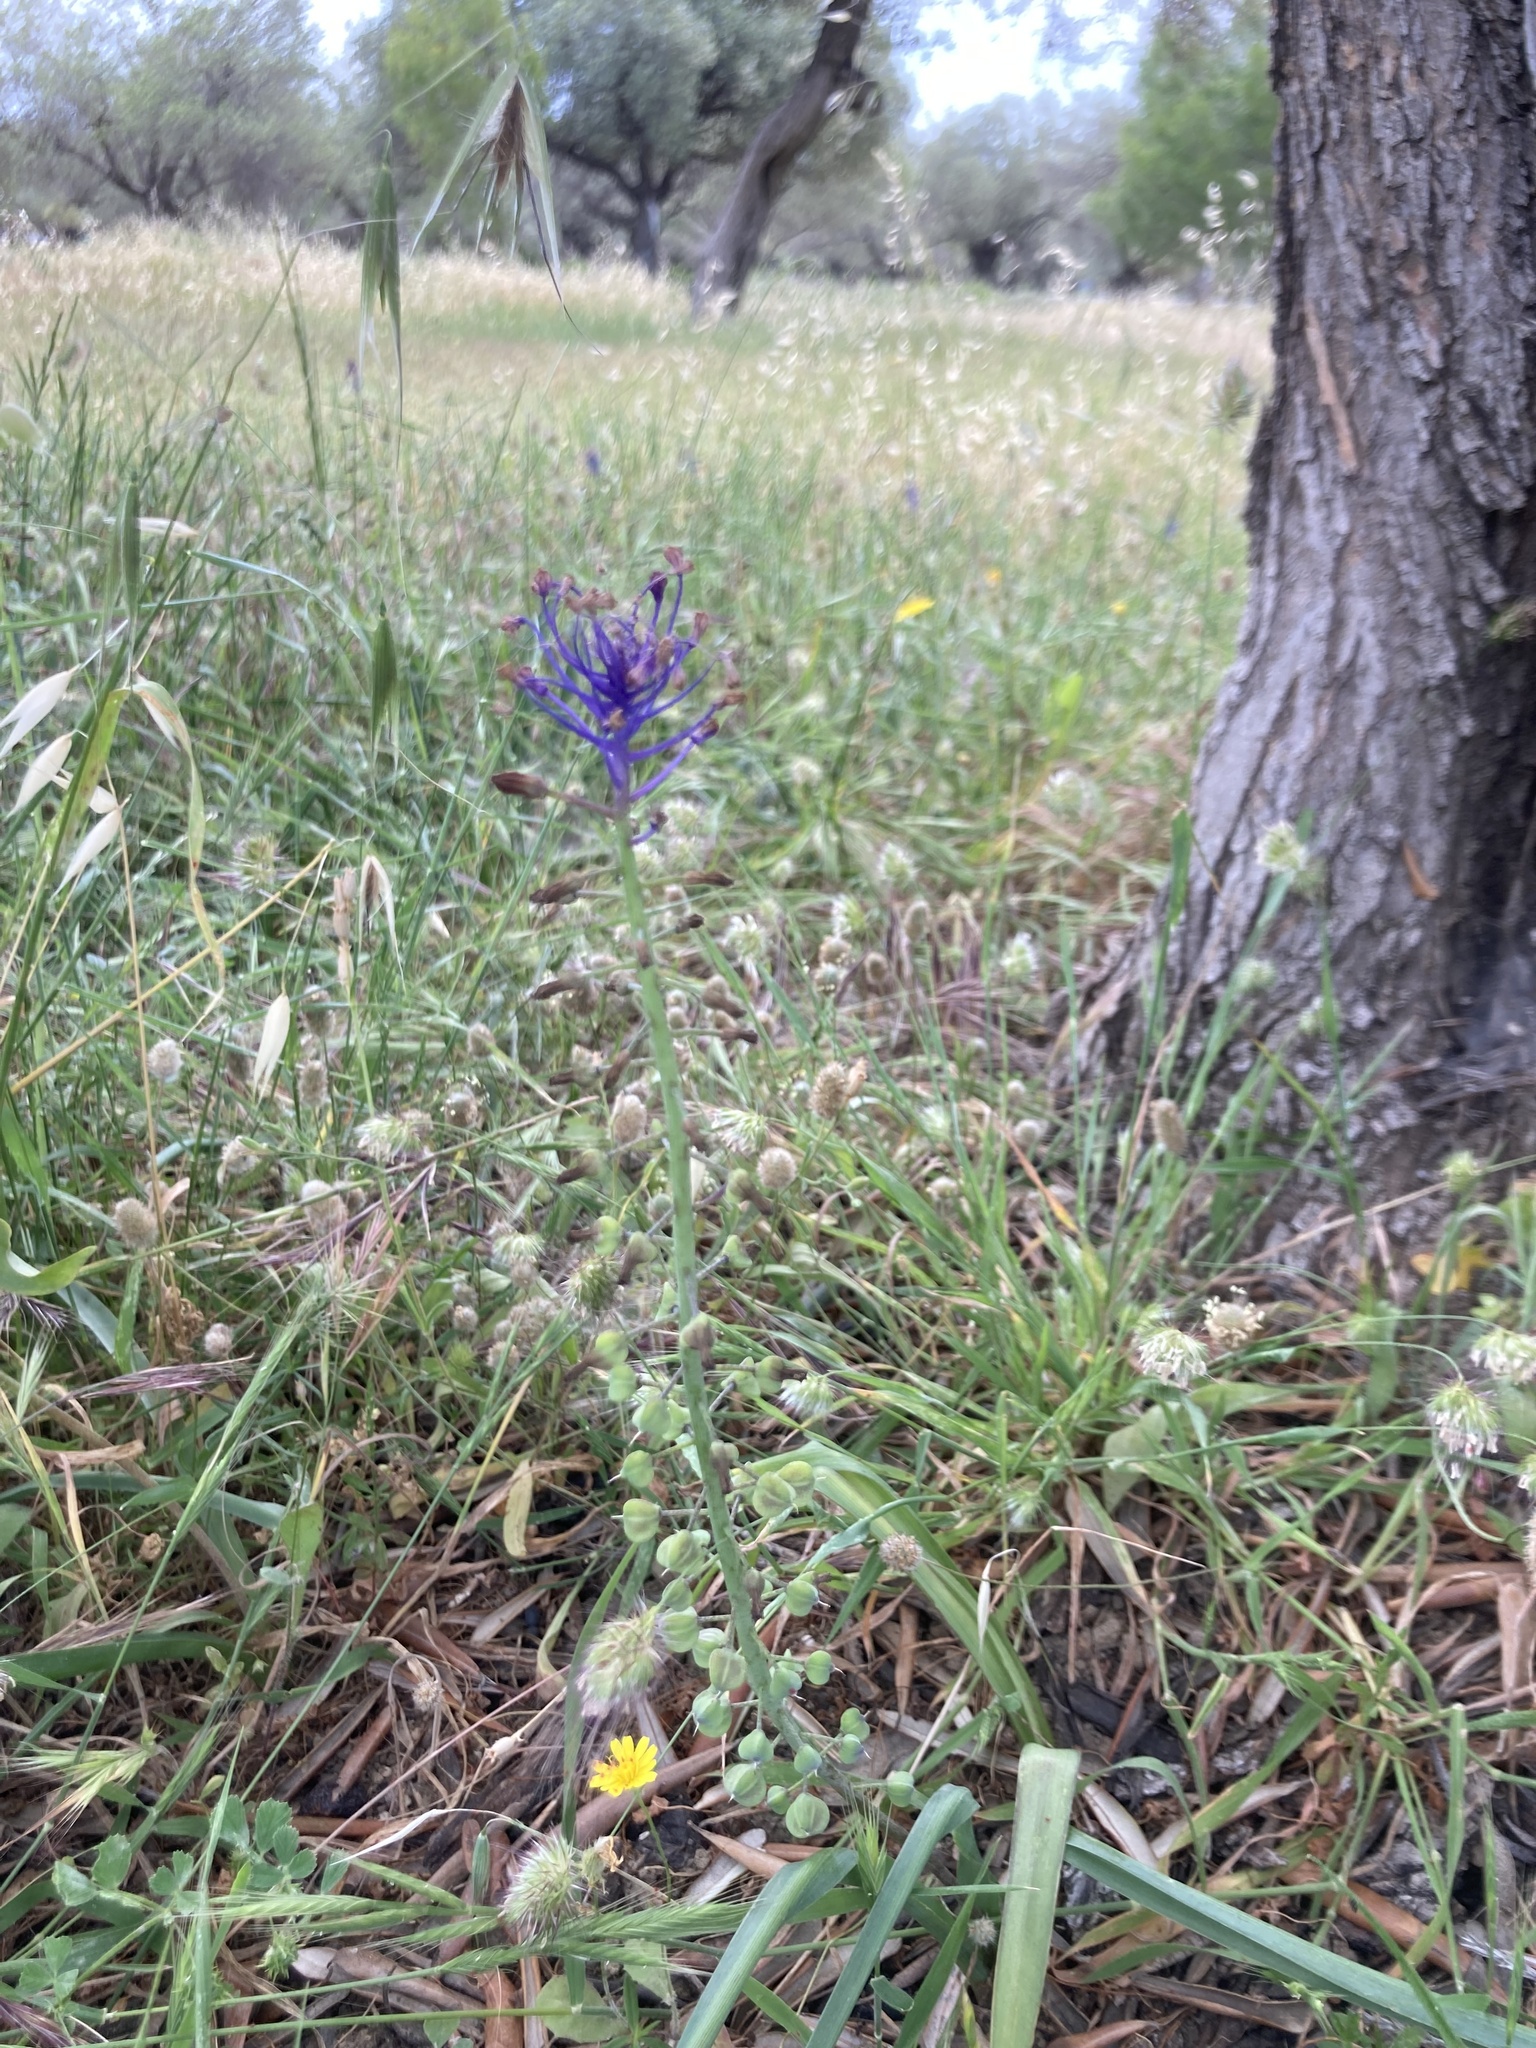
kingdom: Plantae
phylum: Tracheophyta
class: Liliopsida
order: Asparagales
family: Asparagaceae
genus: Muscari
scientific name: Muscari comosum
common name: Tassel hyacinth
